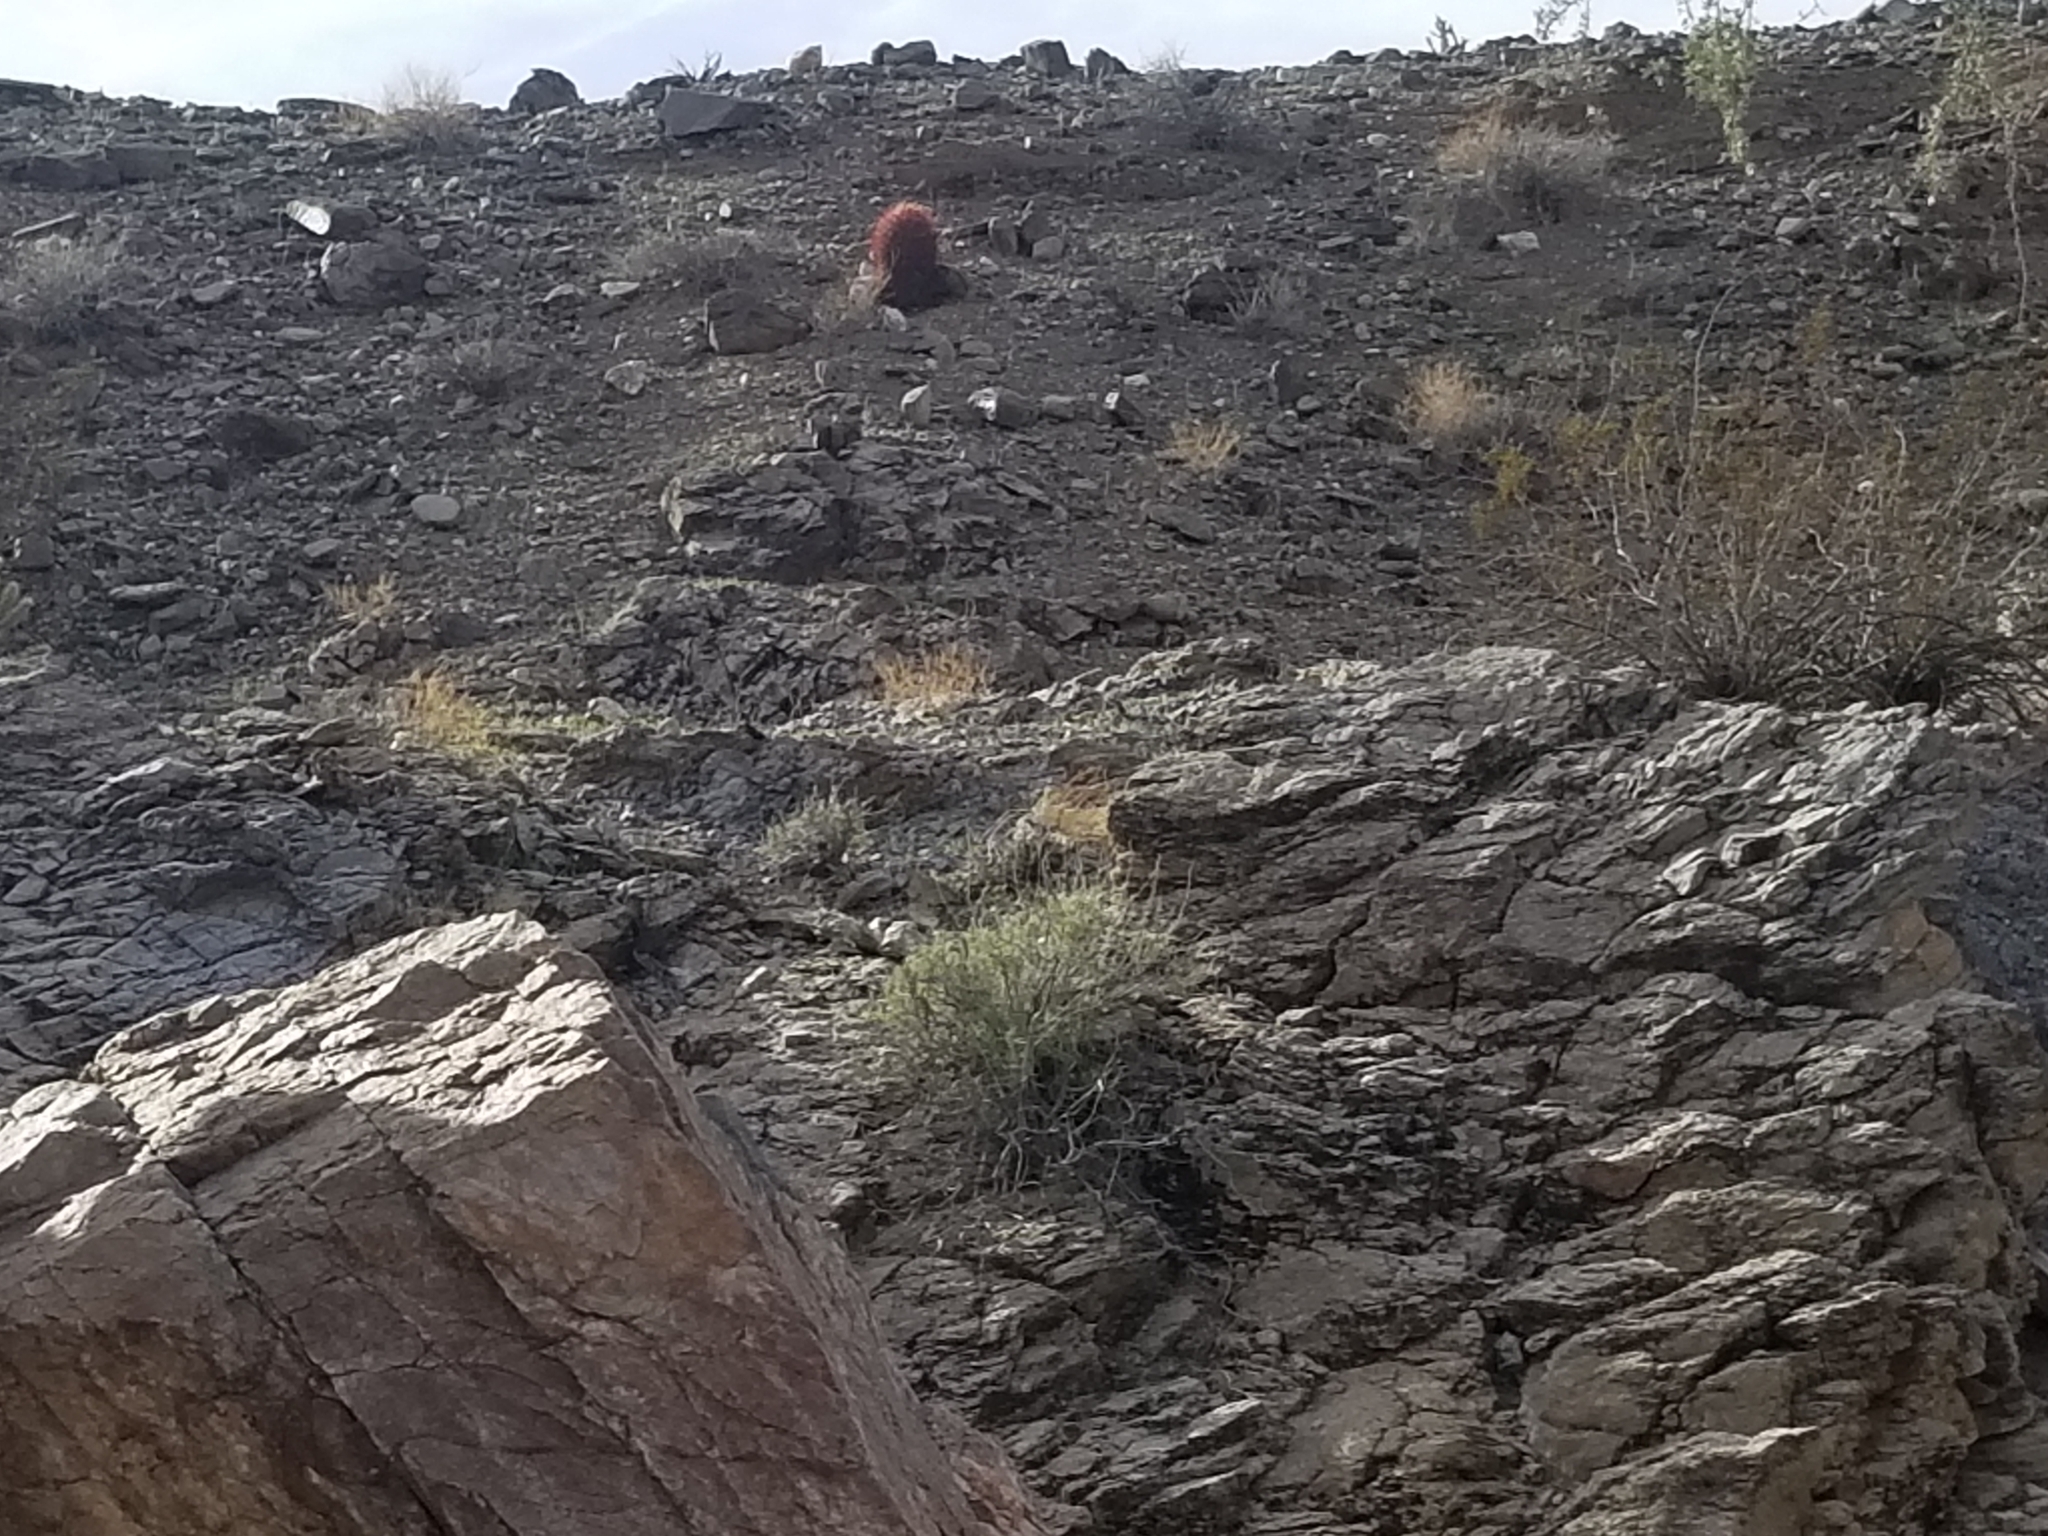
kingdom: Plantae
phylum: Tracheophyta
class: Magnoliopsida
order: Caryophyllales
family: Cactaceae
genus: Ferocactus
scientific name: Ferocactus cylindraceus
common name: California barrel cactus
